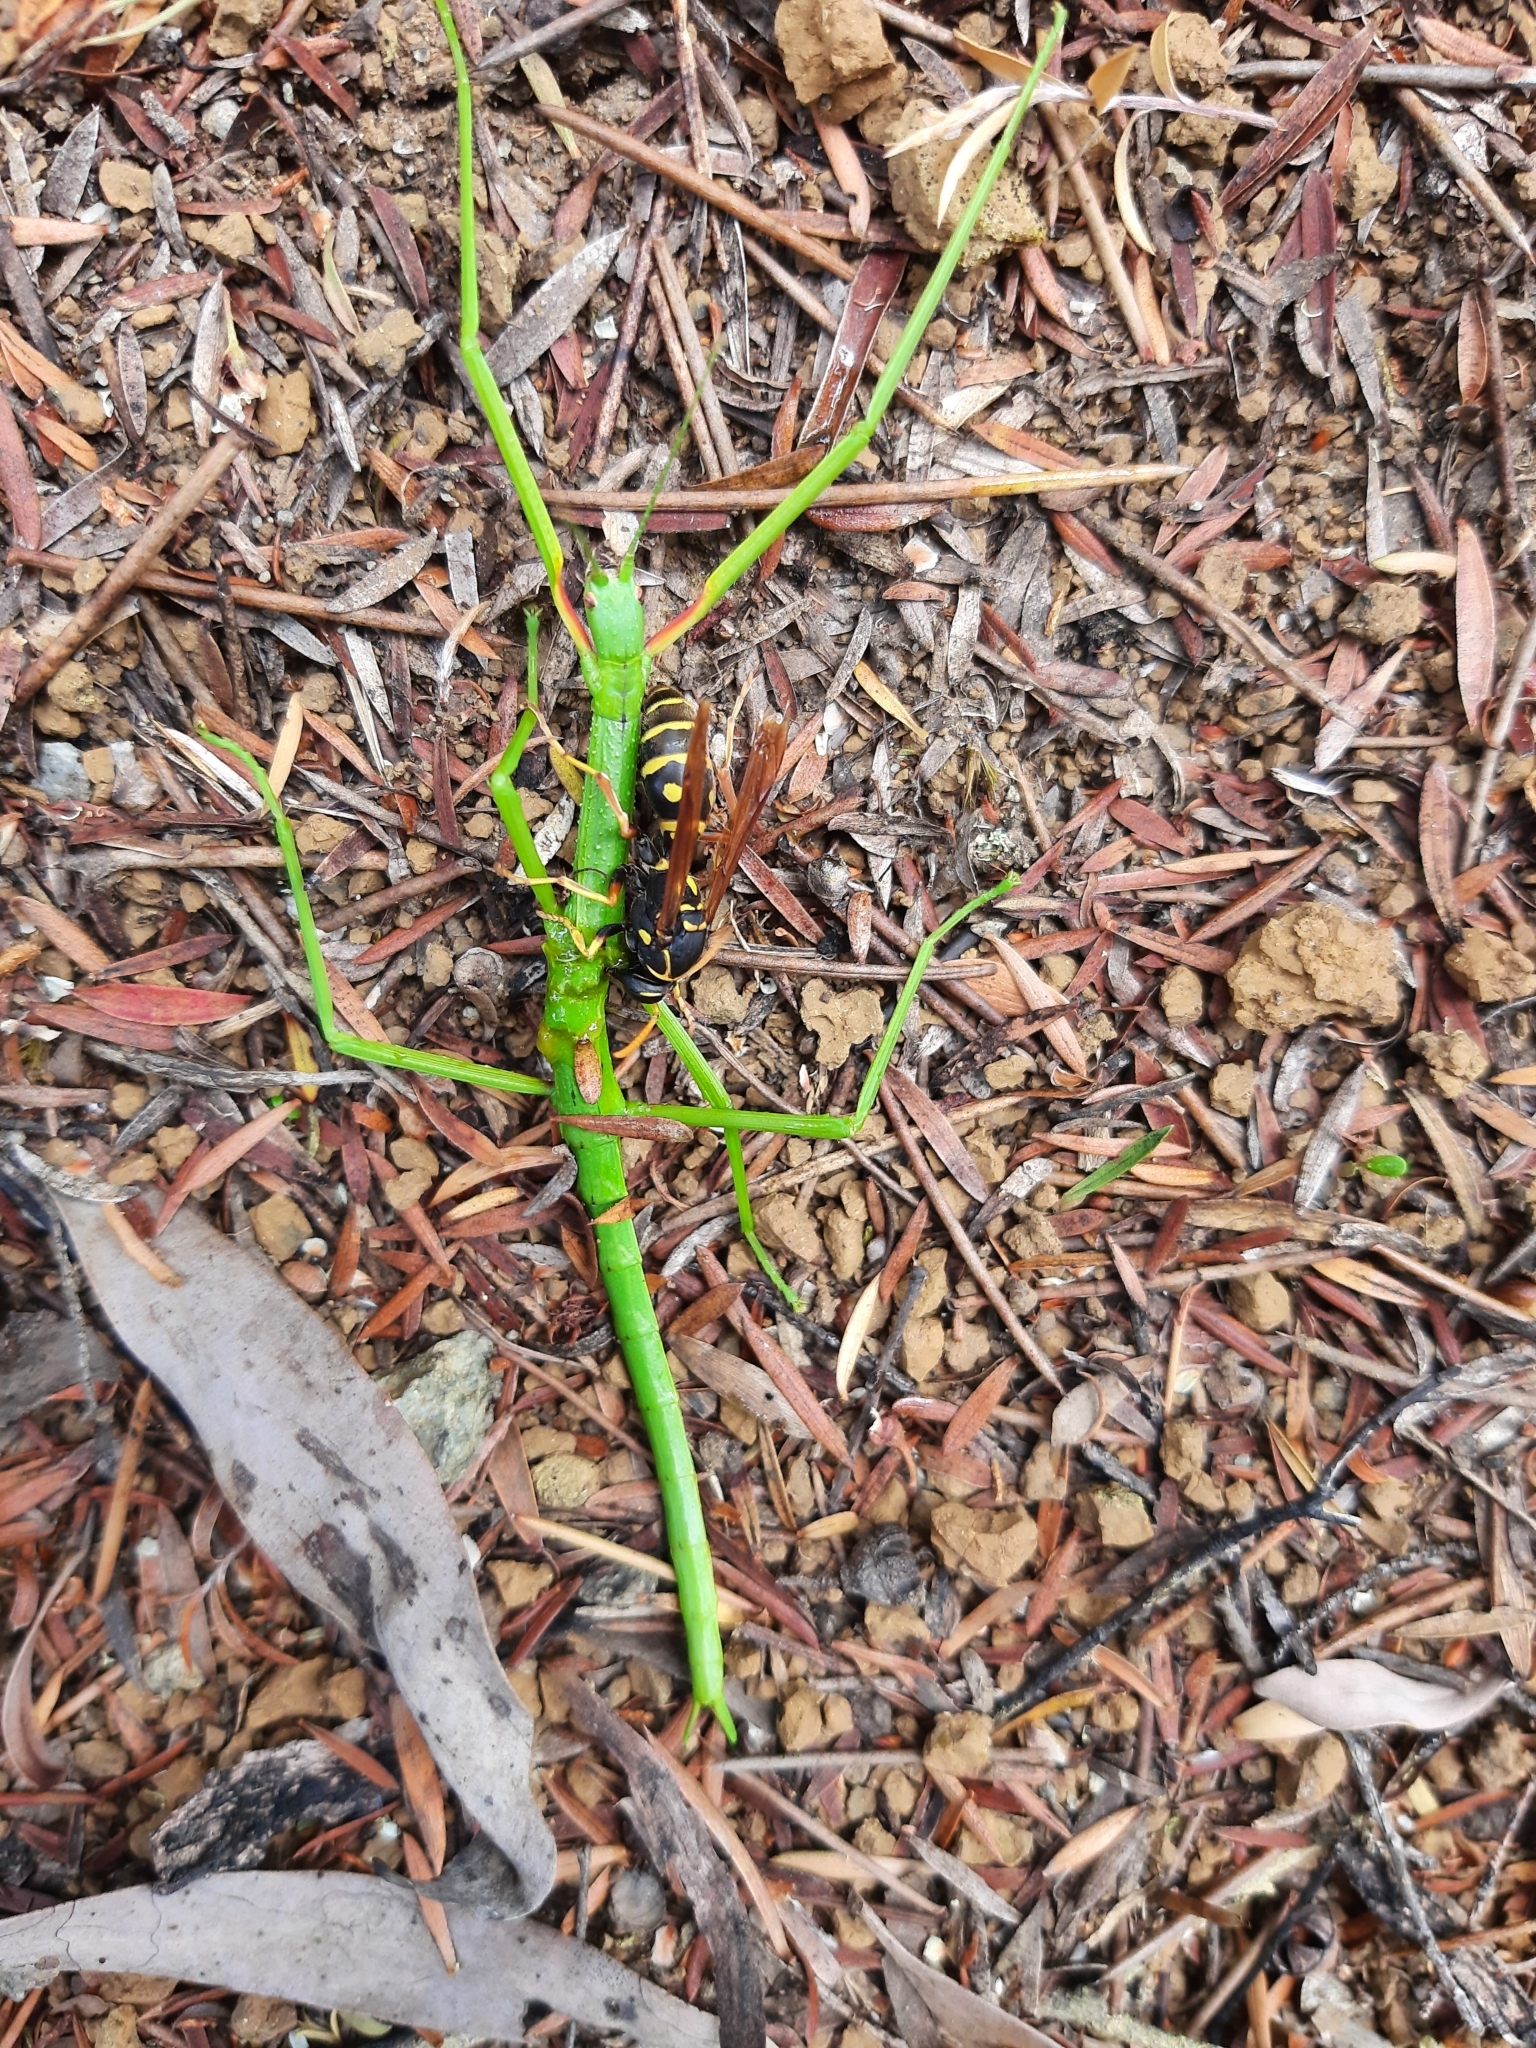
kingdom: Animalia
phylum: Arthropoda
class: Insecta
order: Phasmida
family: Phasmatidae
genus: Clitarchus
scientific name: Clitarchus hookeri
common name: Smooth stick insect
